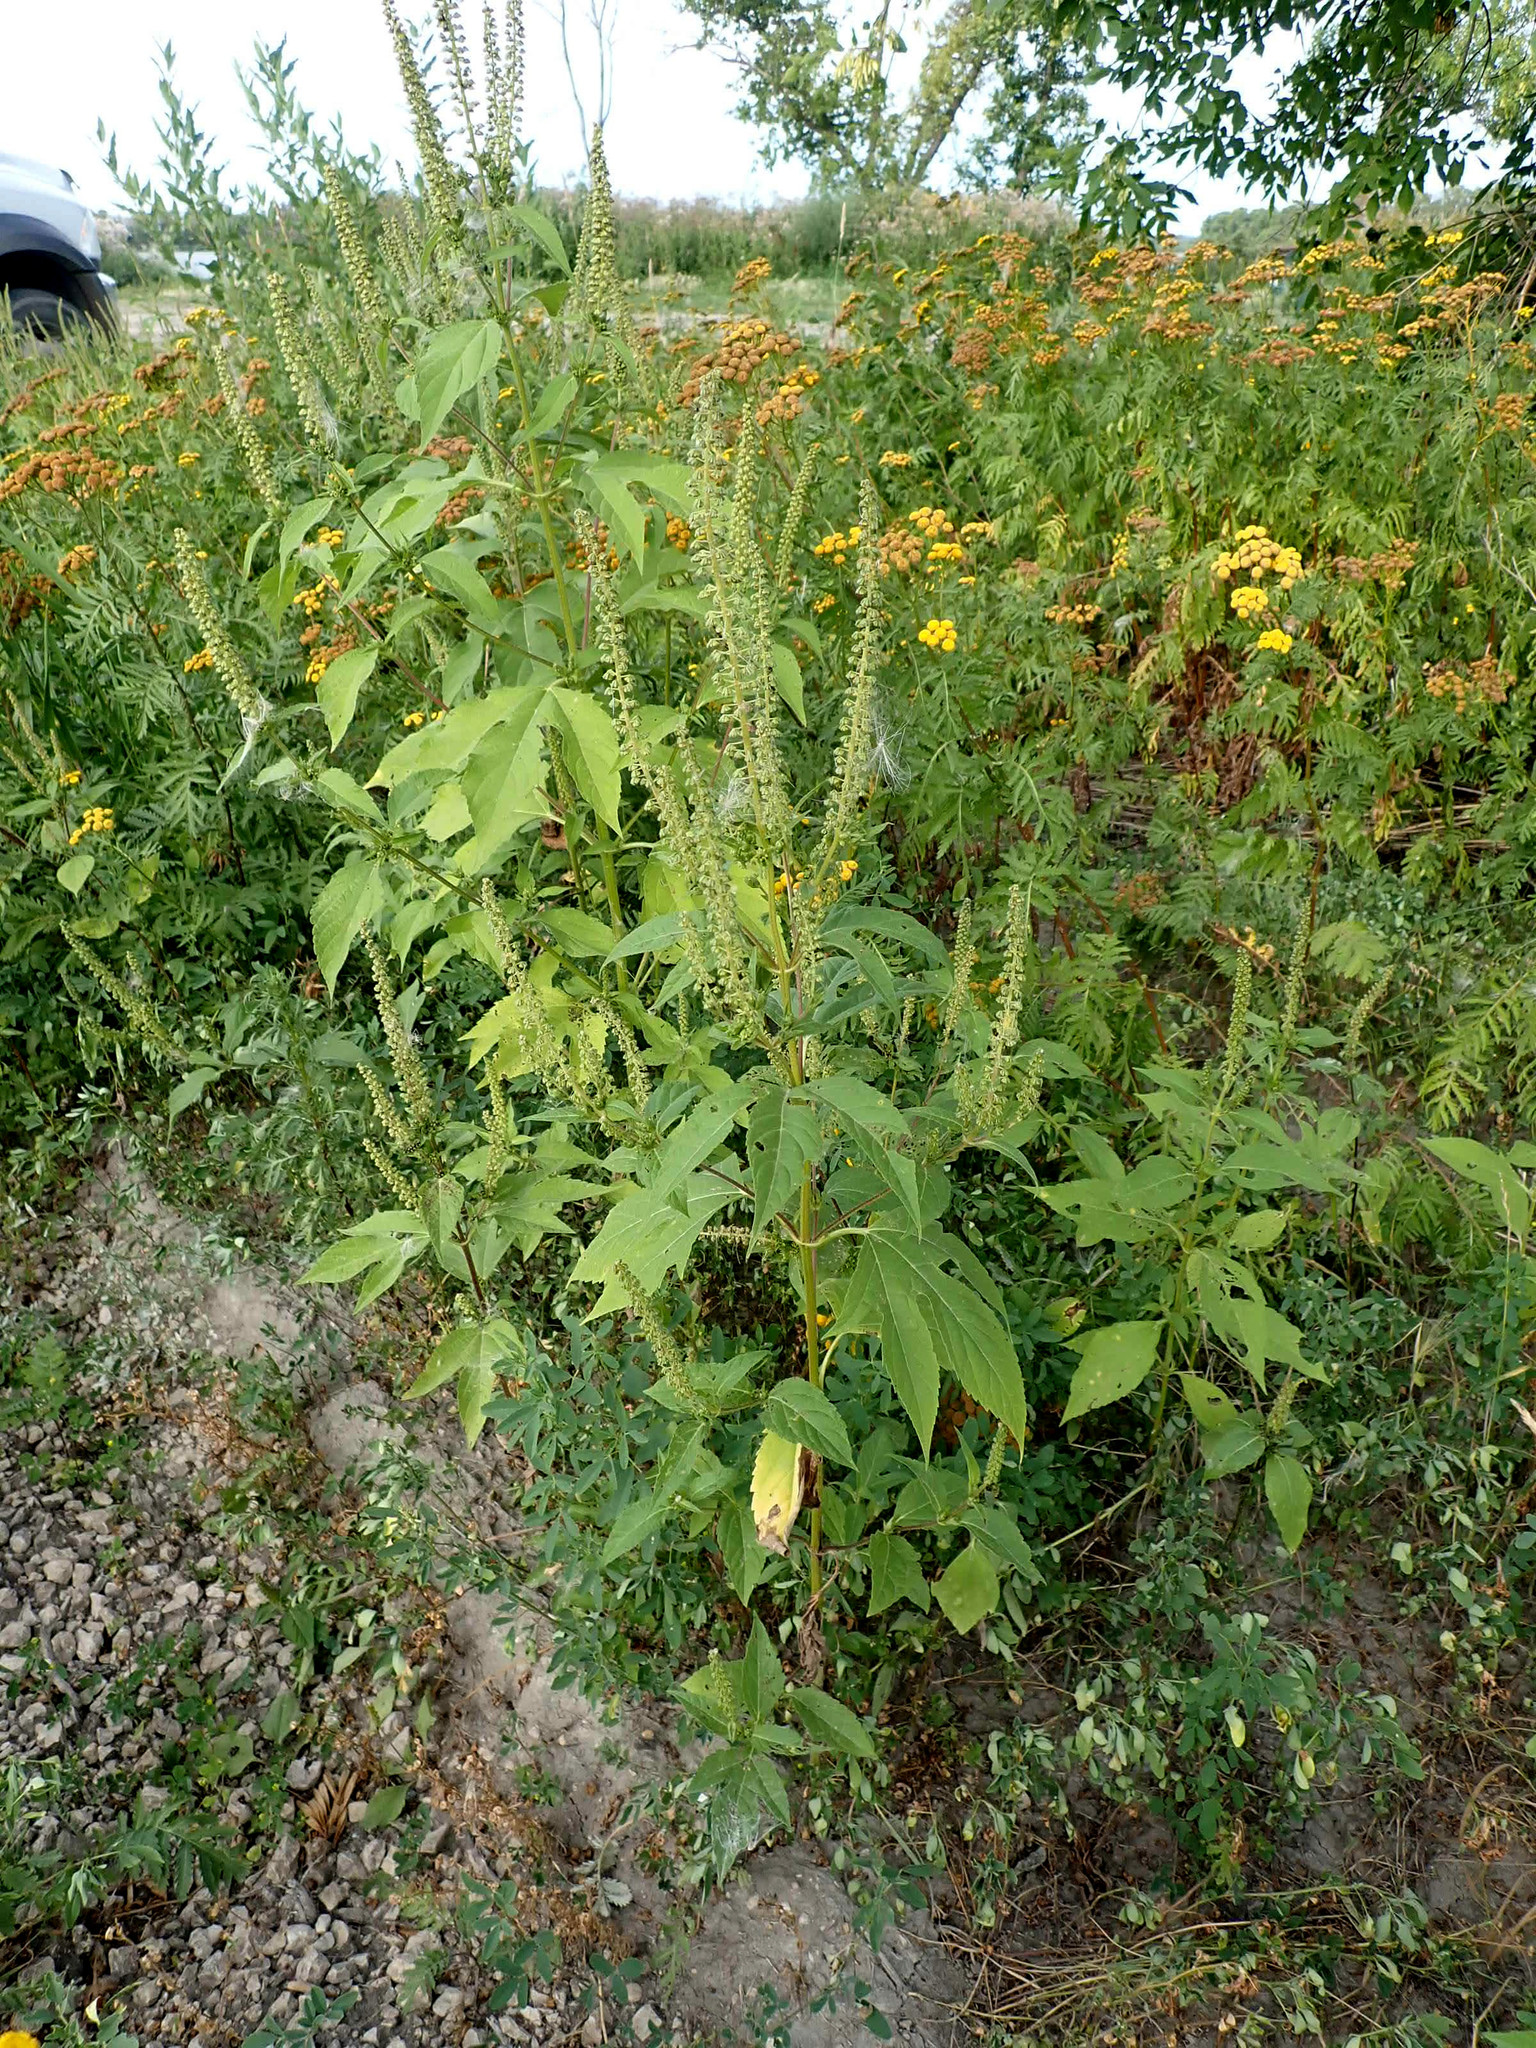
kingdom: Plantae
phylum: Tracheophyta
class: Magnoliopsida
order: Asterales
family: Asteraceae
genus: Ambrosia
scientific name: Ambrosia trifida
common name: Giant ragweed
